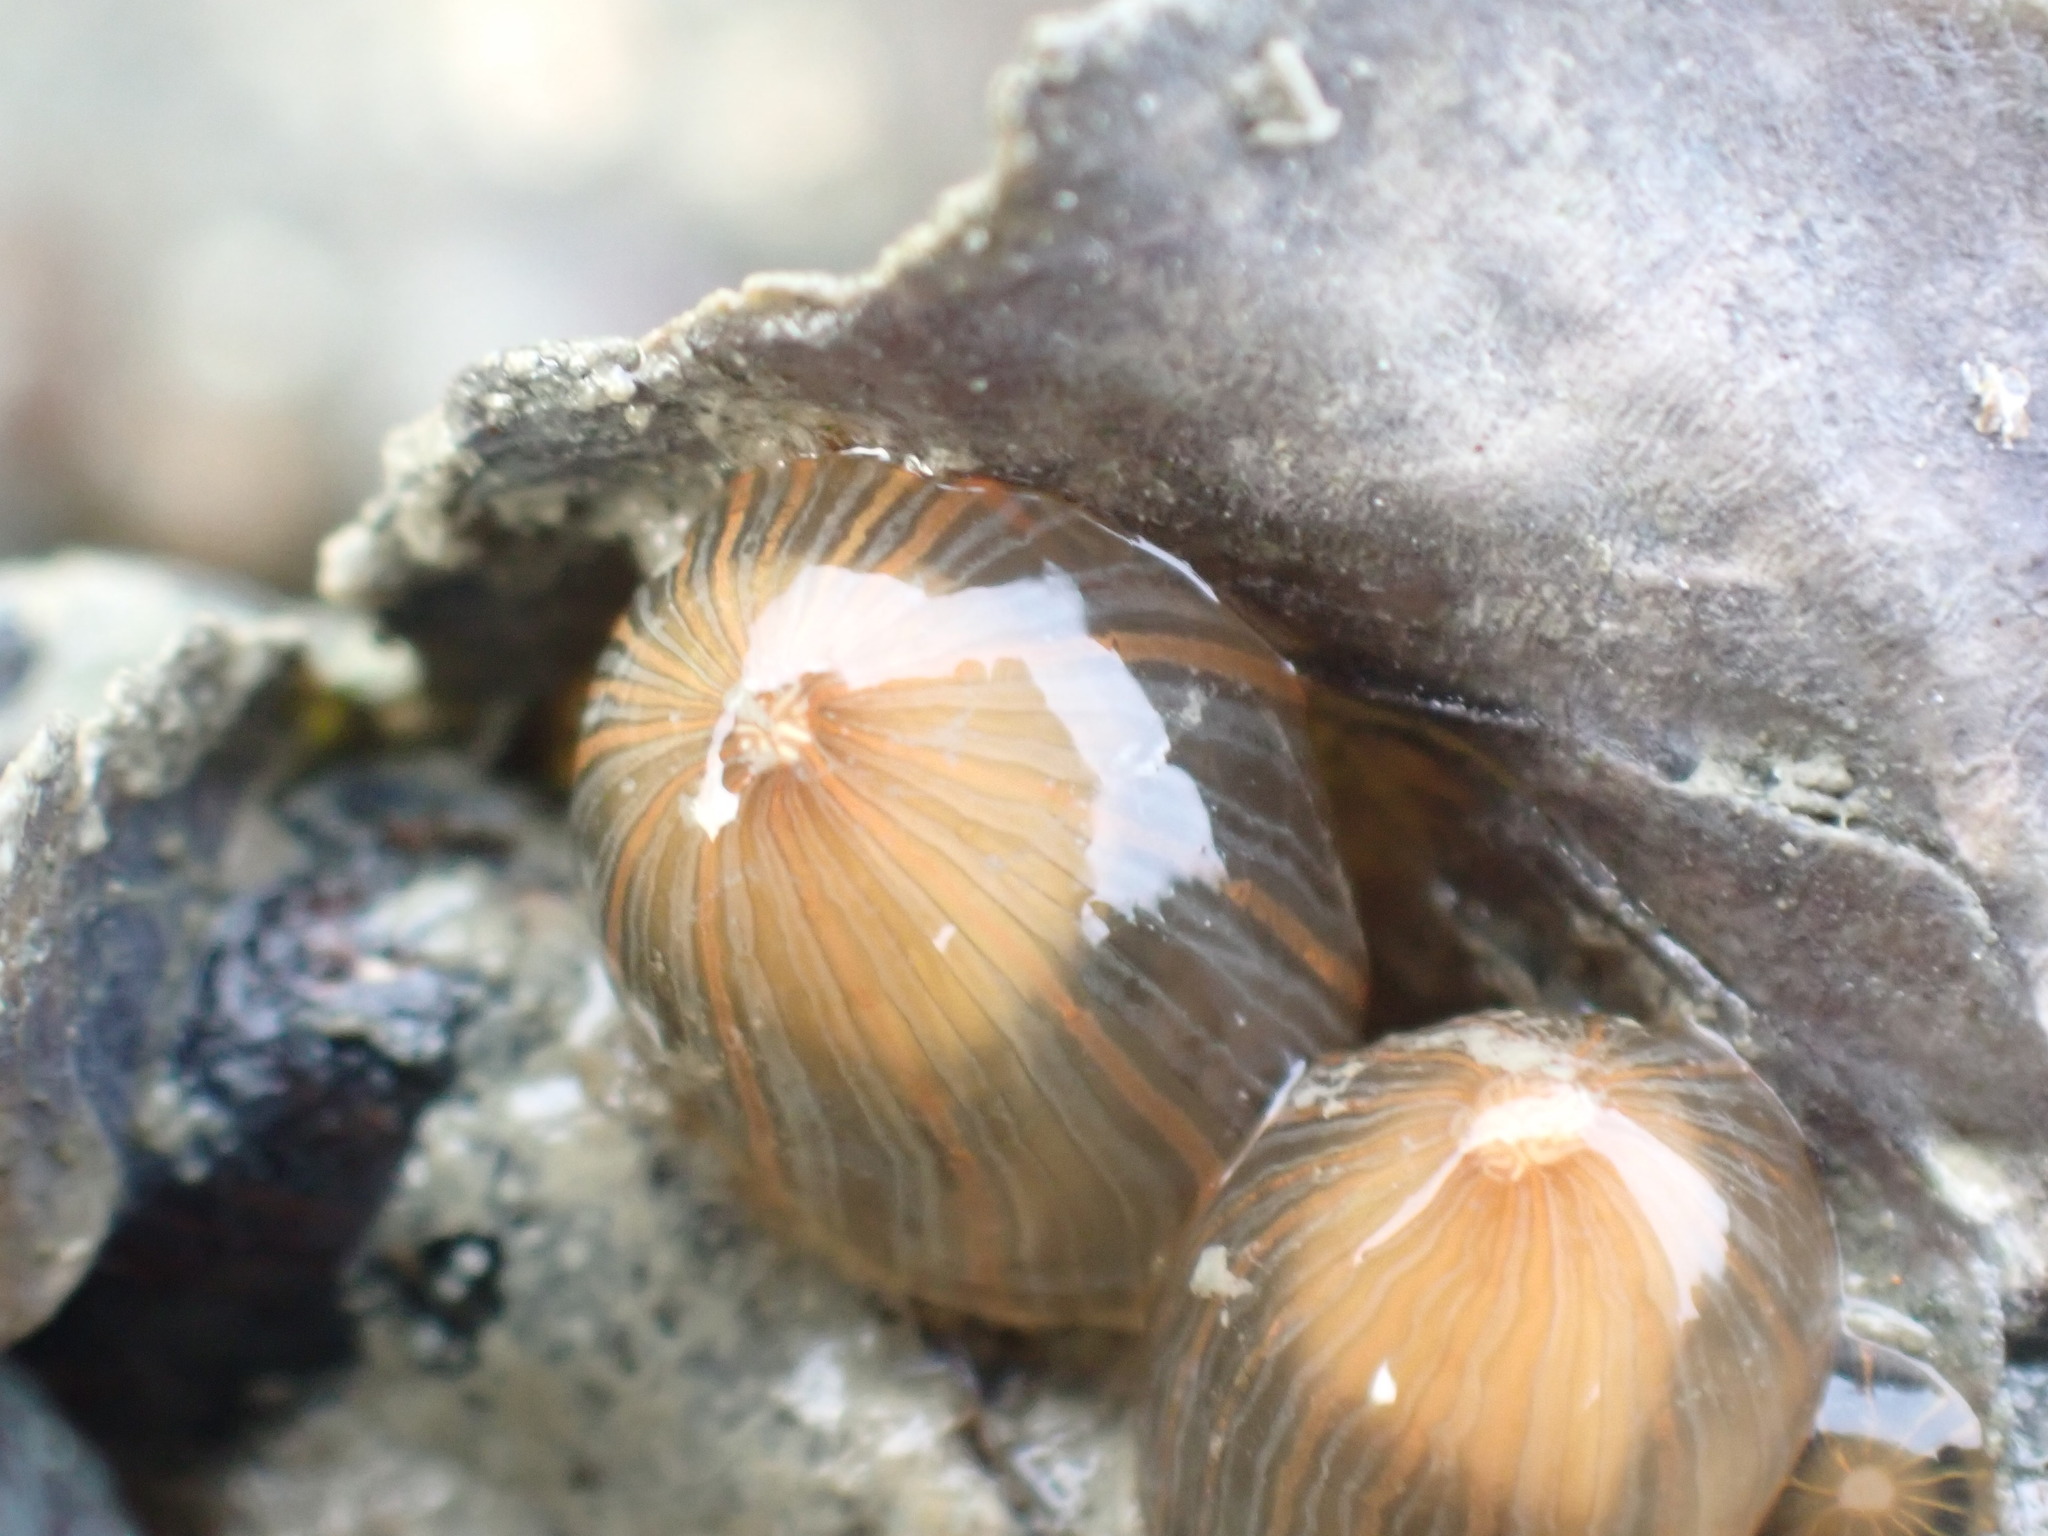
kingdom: Animalia
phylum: Cnidaria
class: Anthozoa
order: Actiniaria
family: Diadumenidae
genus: Diadumene
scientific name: Diadumene lineata
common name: Orange-striped anemone
